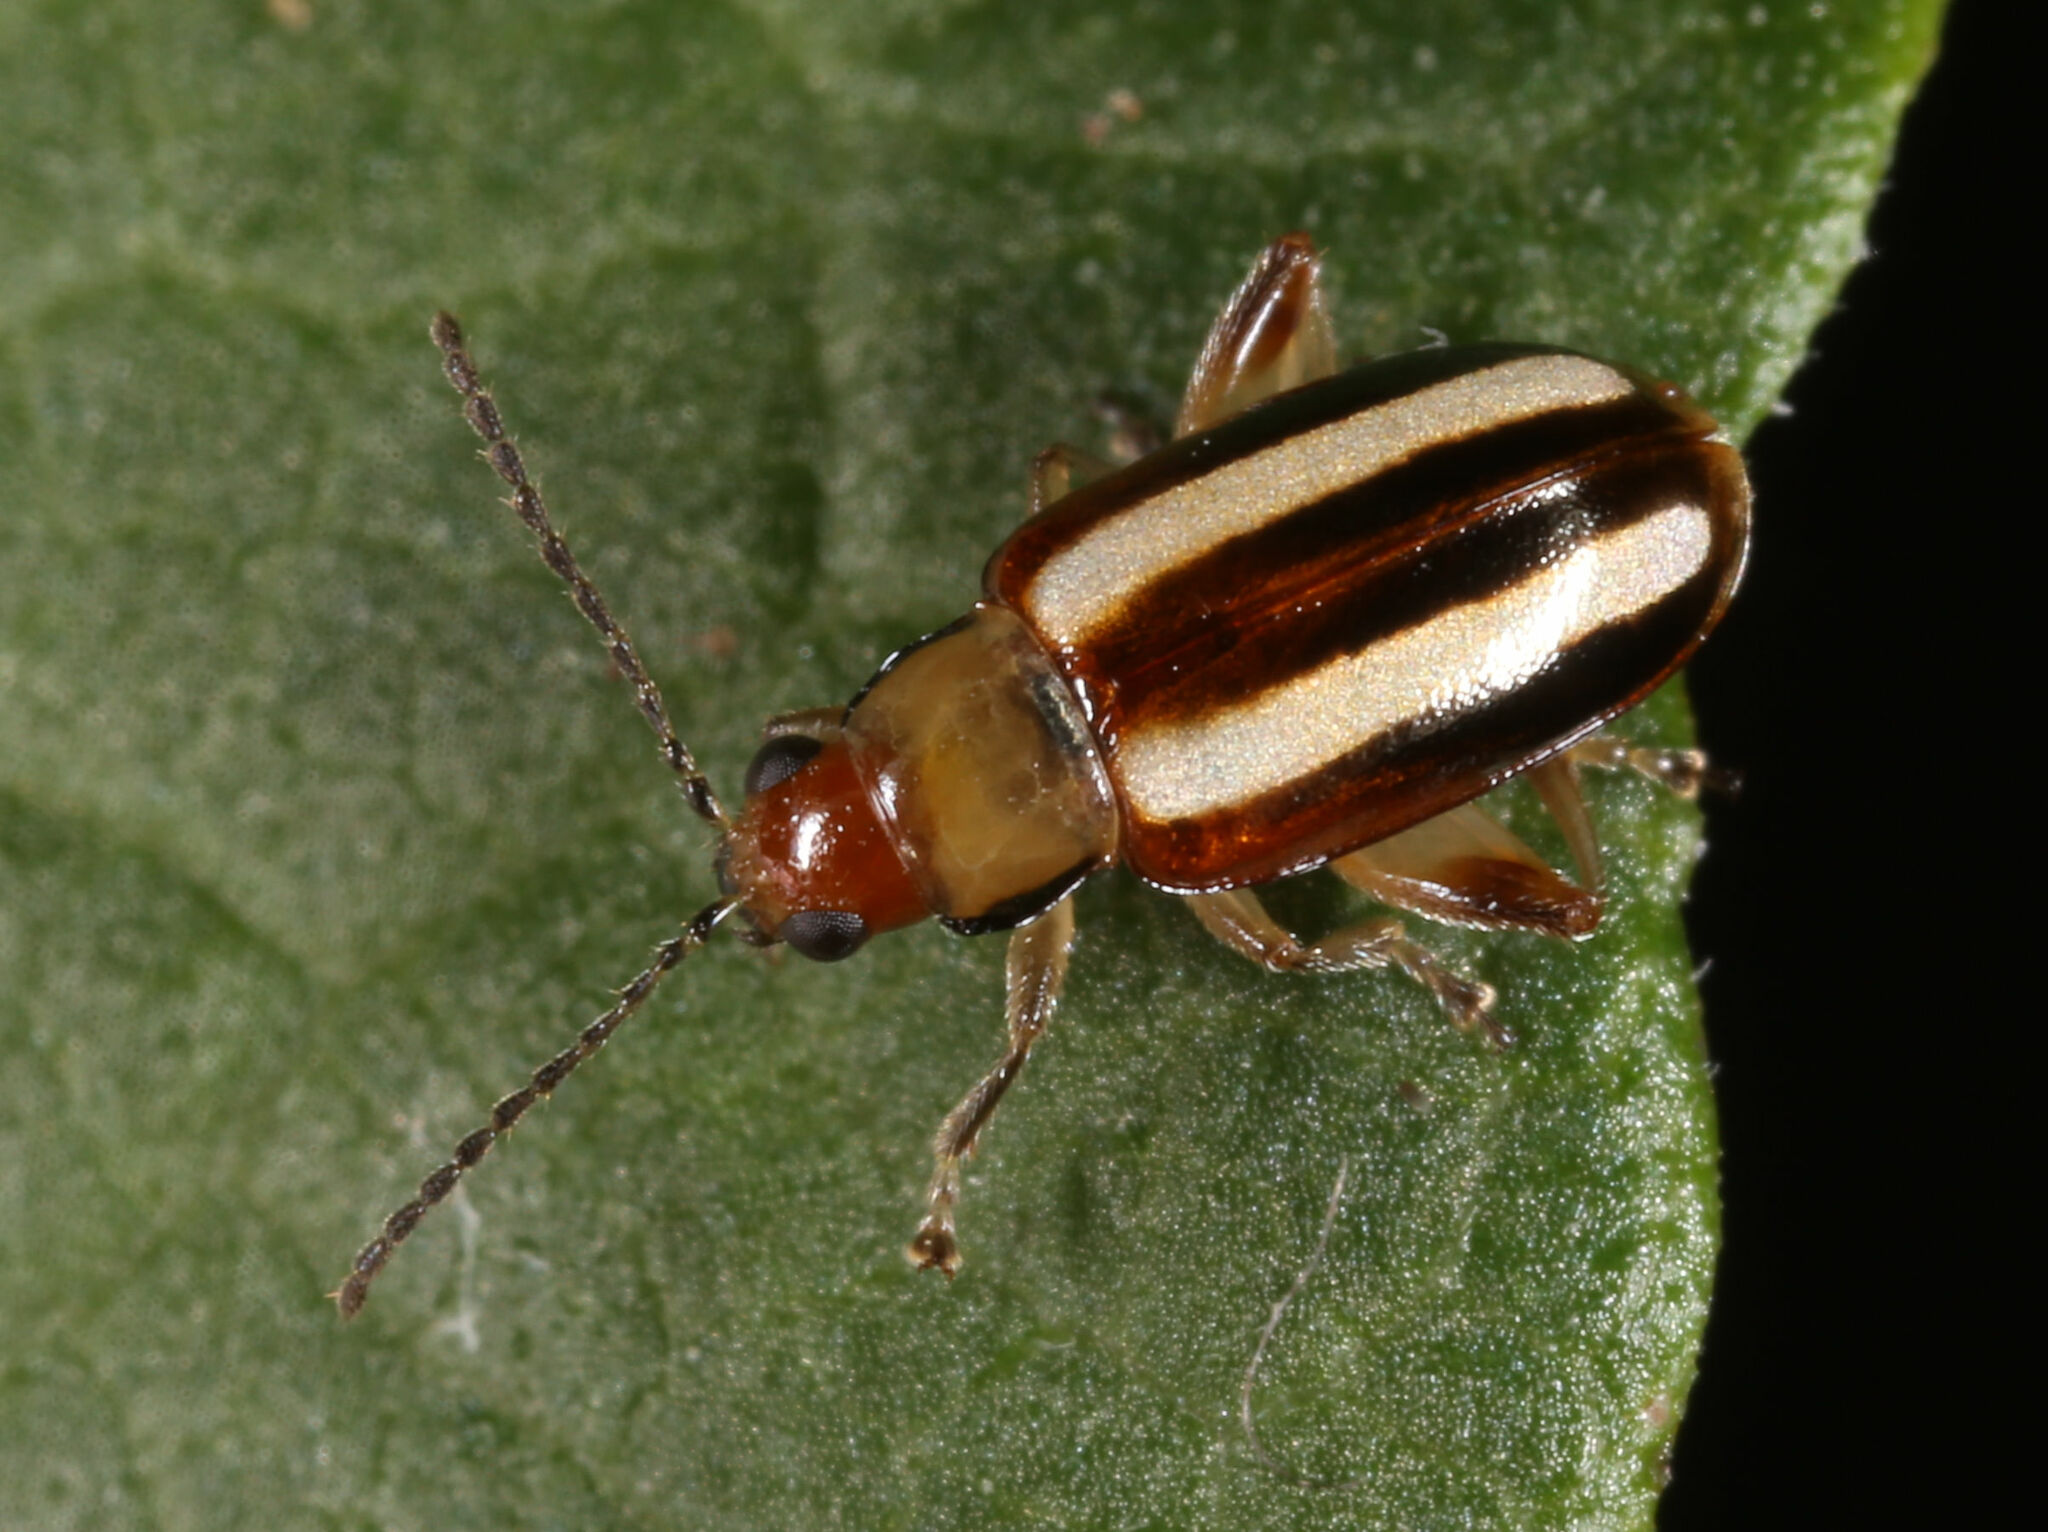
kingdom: Animalia
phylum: Arthropoda
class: Insecta
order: Coleoptera
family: Chrysomelidae
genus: Systena
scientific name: Systena blanda
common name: Palestriped flea beetle
